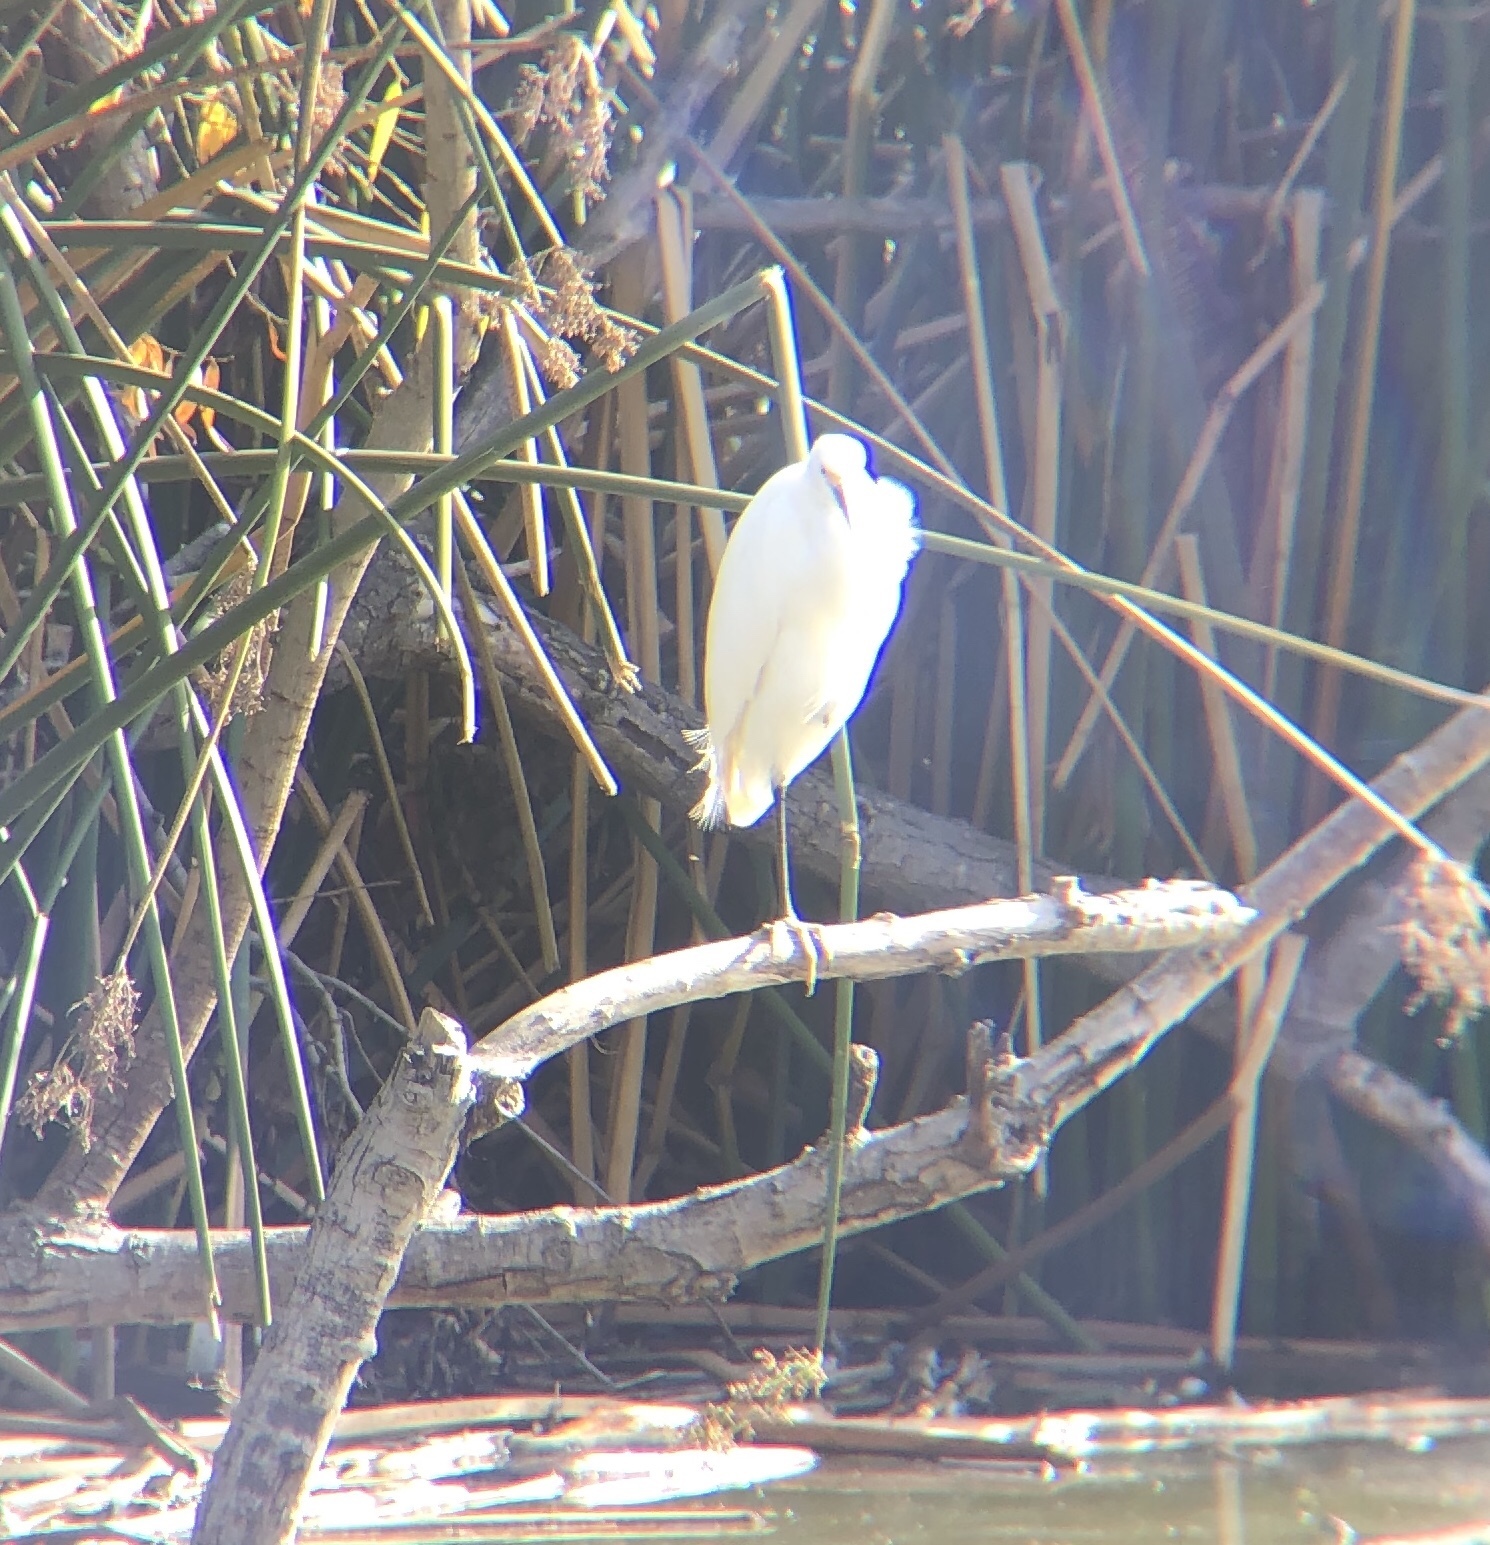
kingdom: Animalia
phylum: Chordata
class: Aves
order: Pelecaniformes
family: Ardeidae
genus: Egretta
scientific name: Egretta thula
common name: Snowy egret
